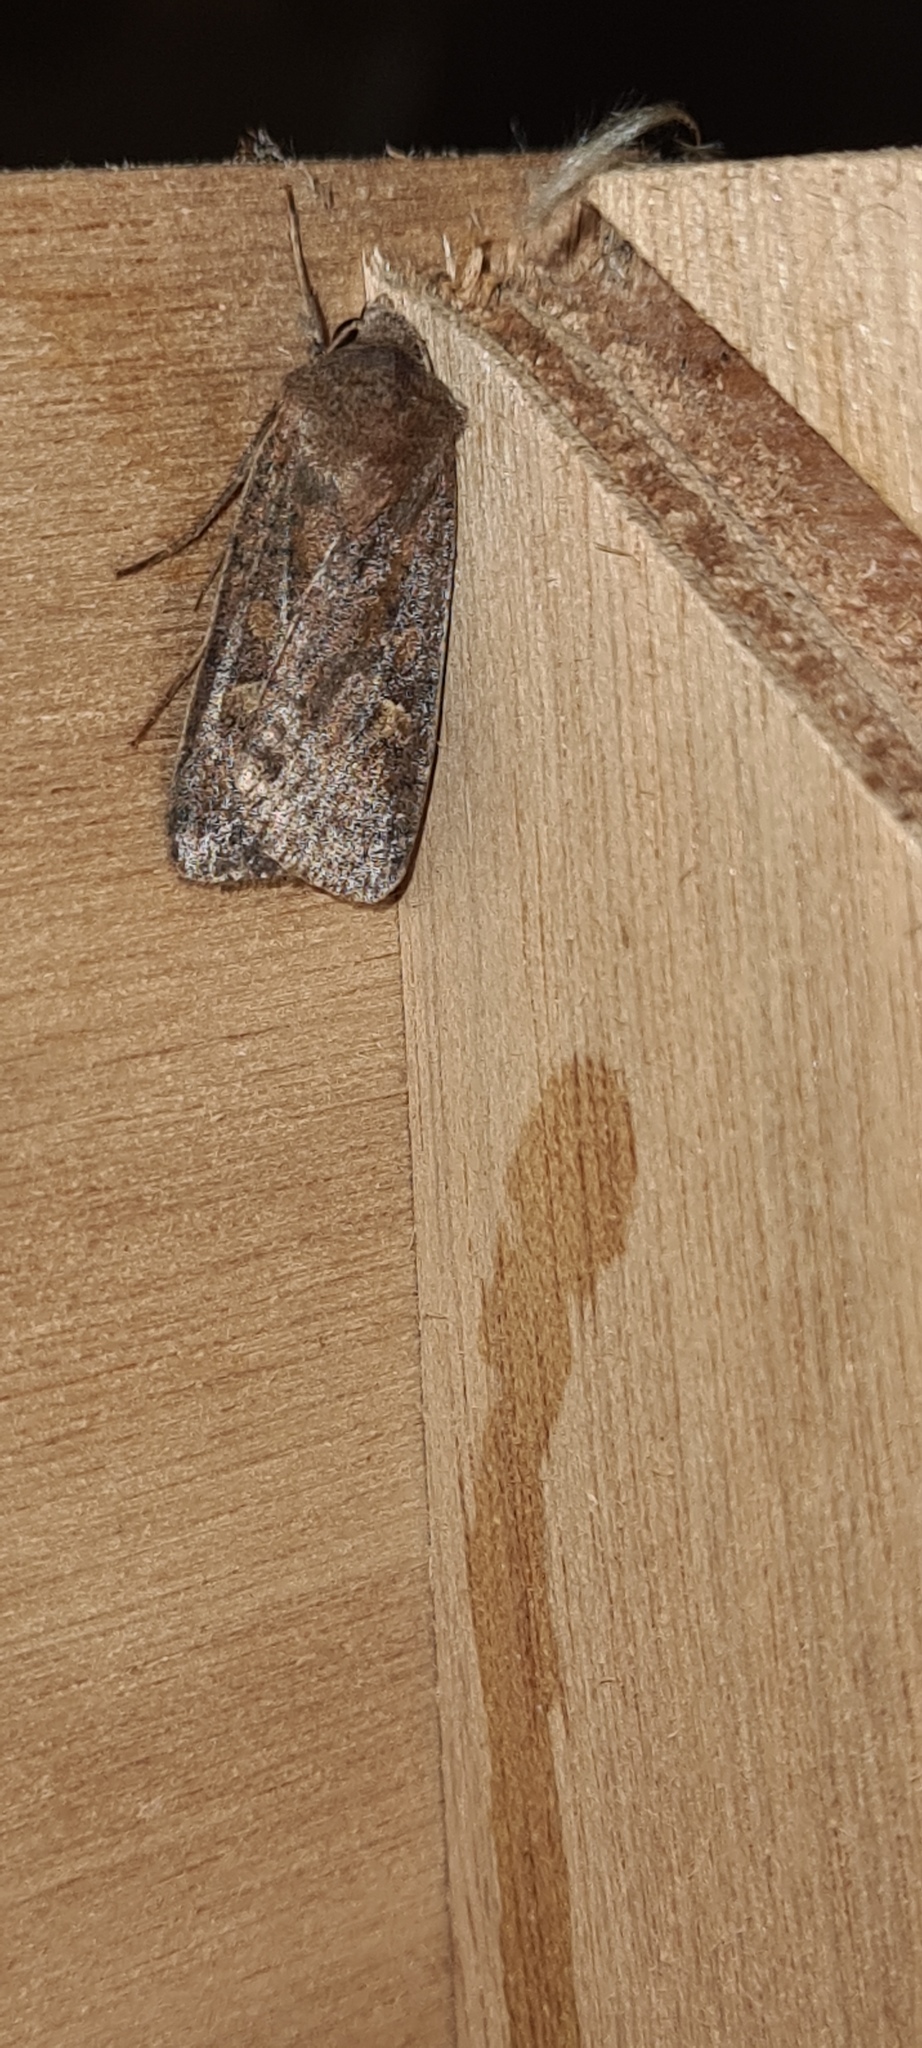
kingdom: Animalia
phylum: Arthropoda
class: Insecta
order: Lepidoptera
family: Noctuidae
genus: Xestia
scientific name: Xestia xanthographa
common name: Square-spot rustic
